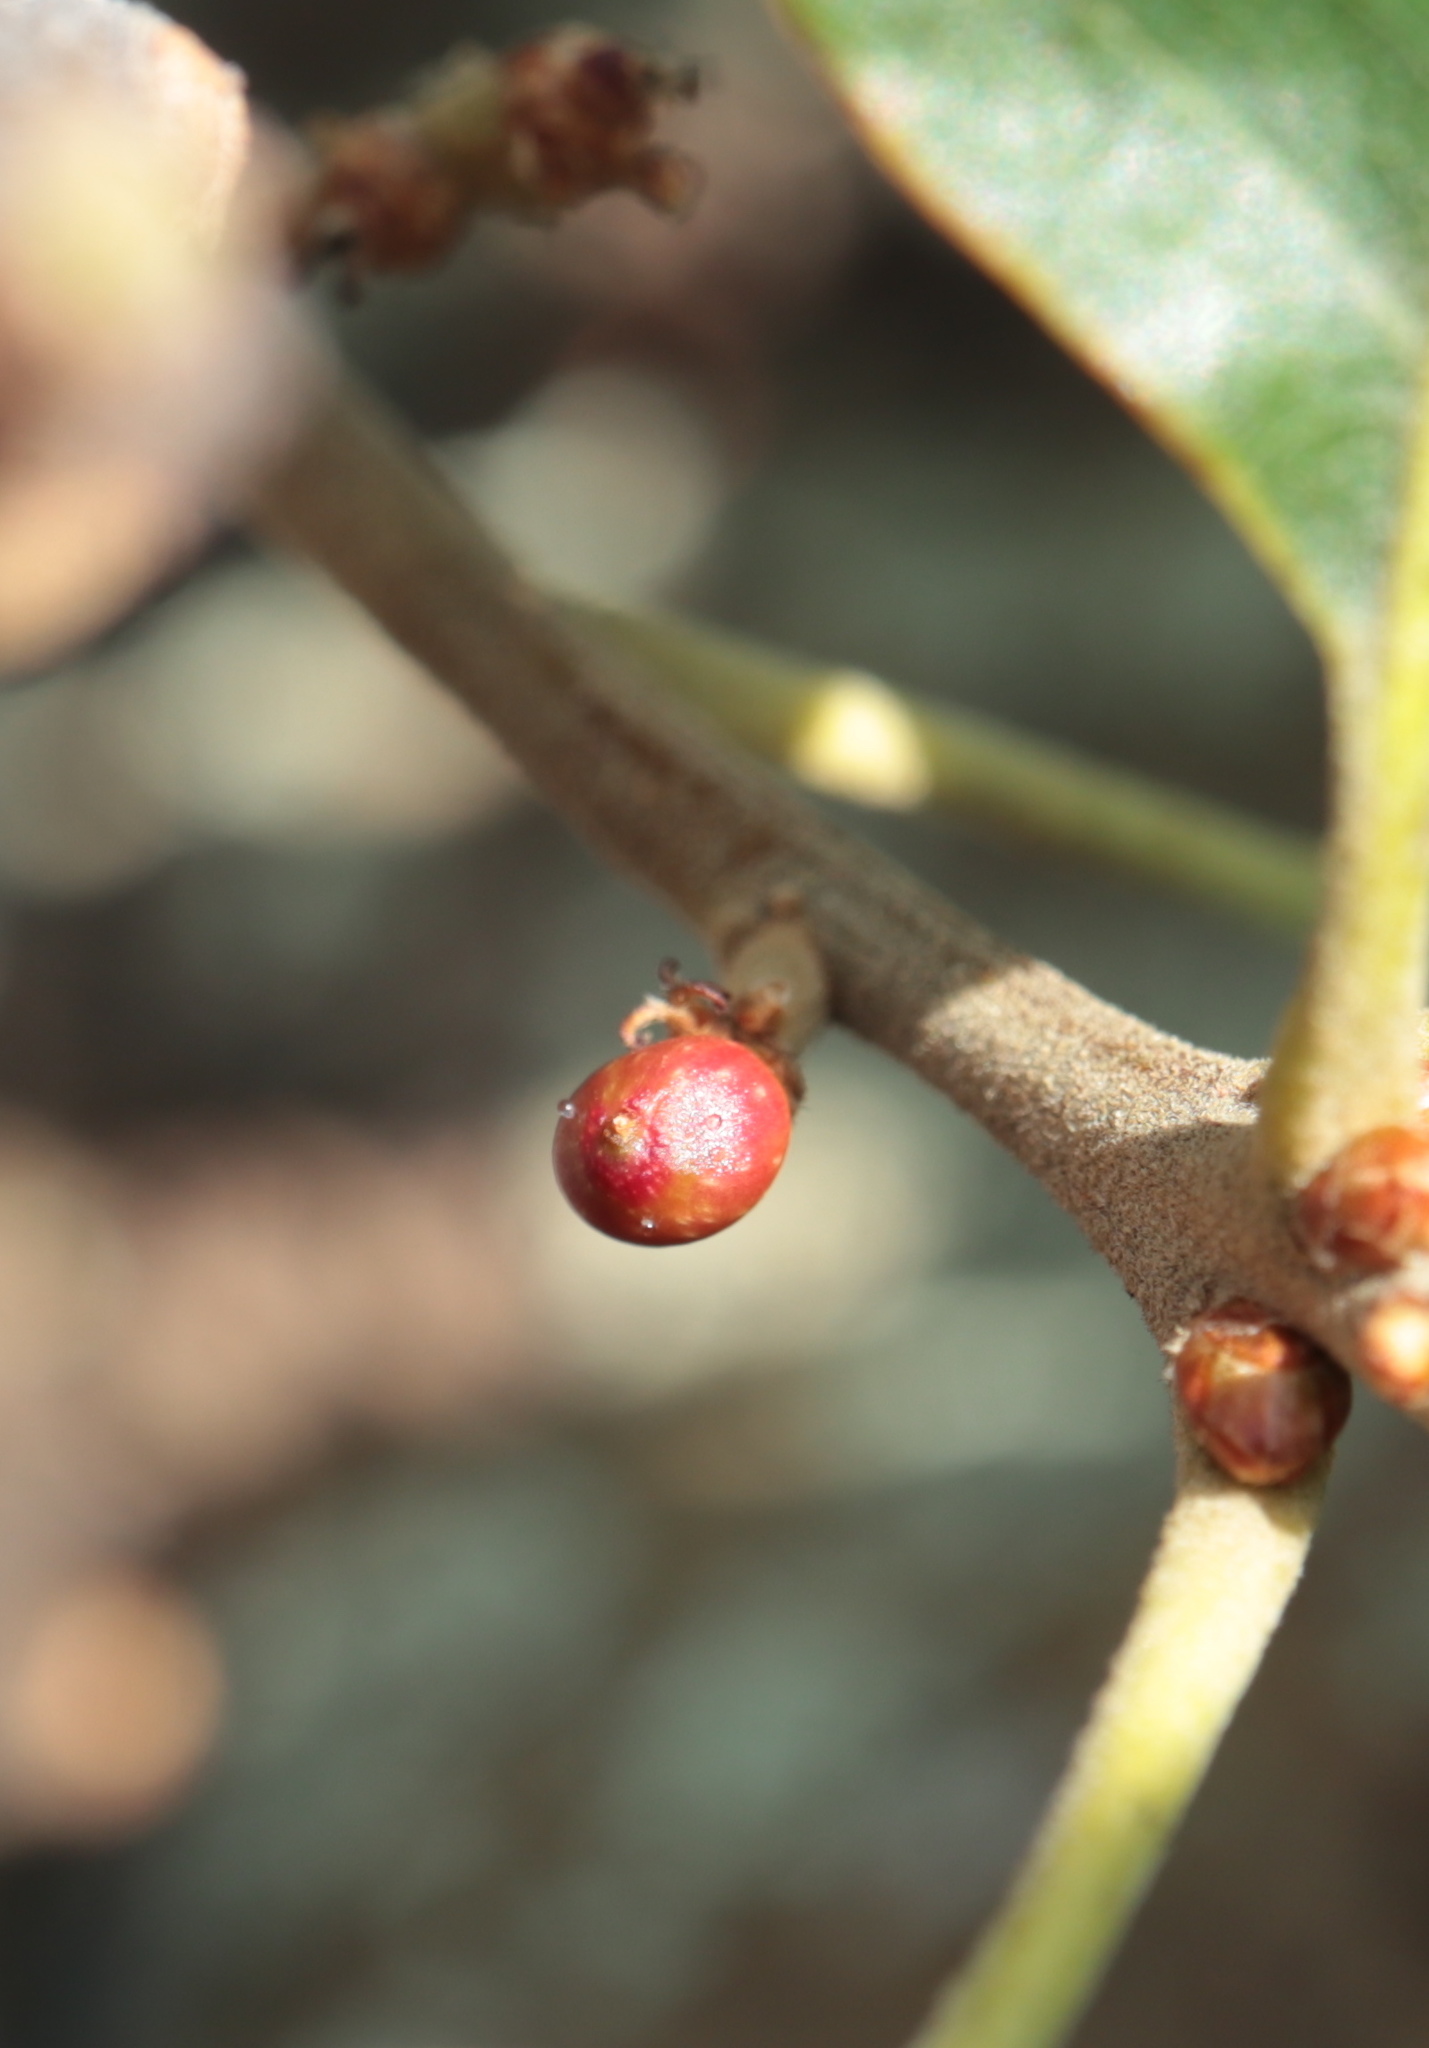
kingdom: Animalia
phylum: Arthropoda
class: Insecta
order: Hymenoptera
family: Cynipidae
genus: Callirhytis
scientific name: Callirhytis
